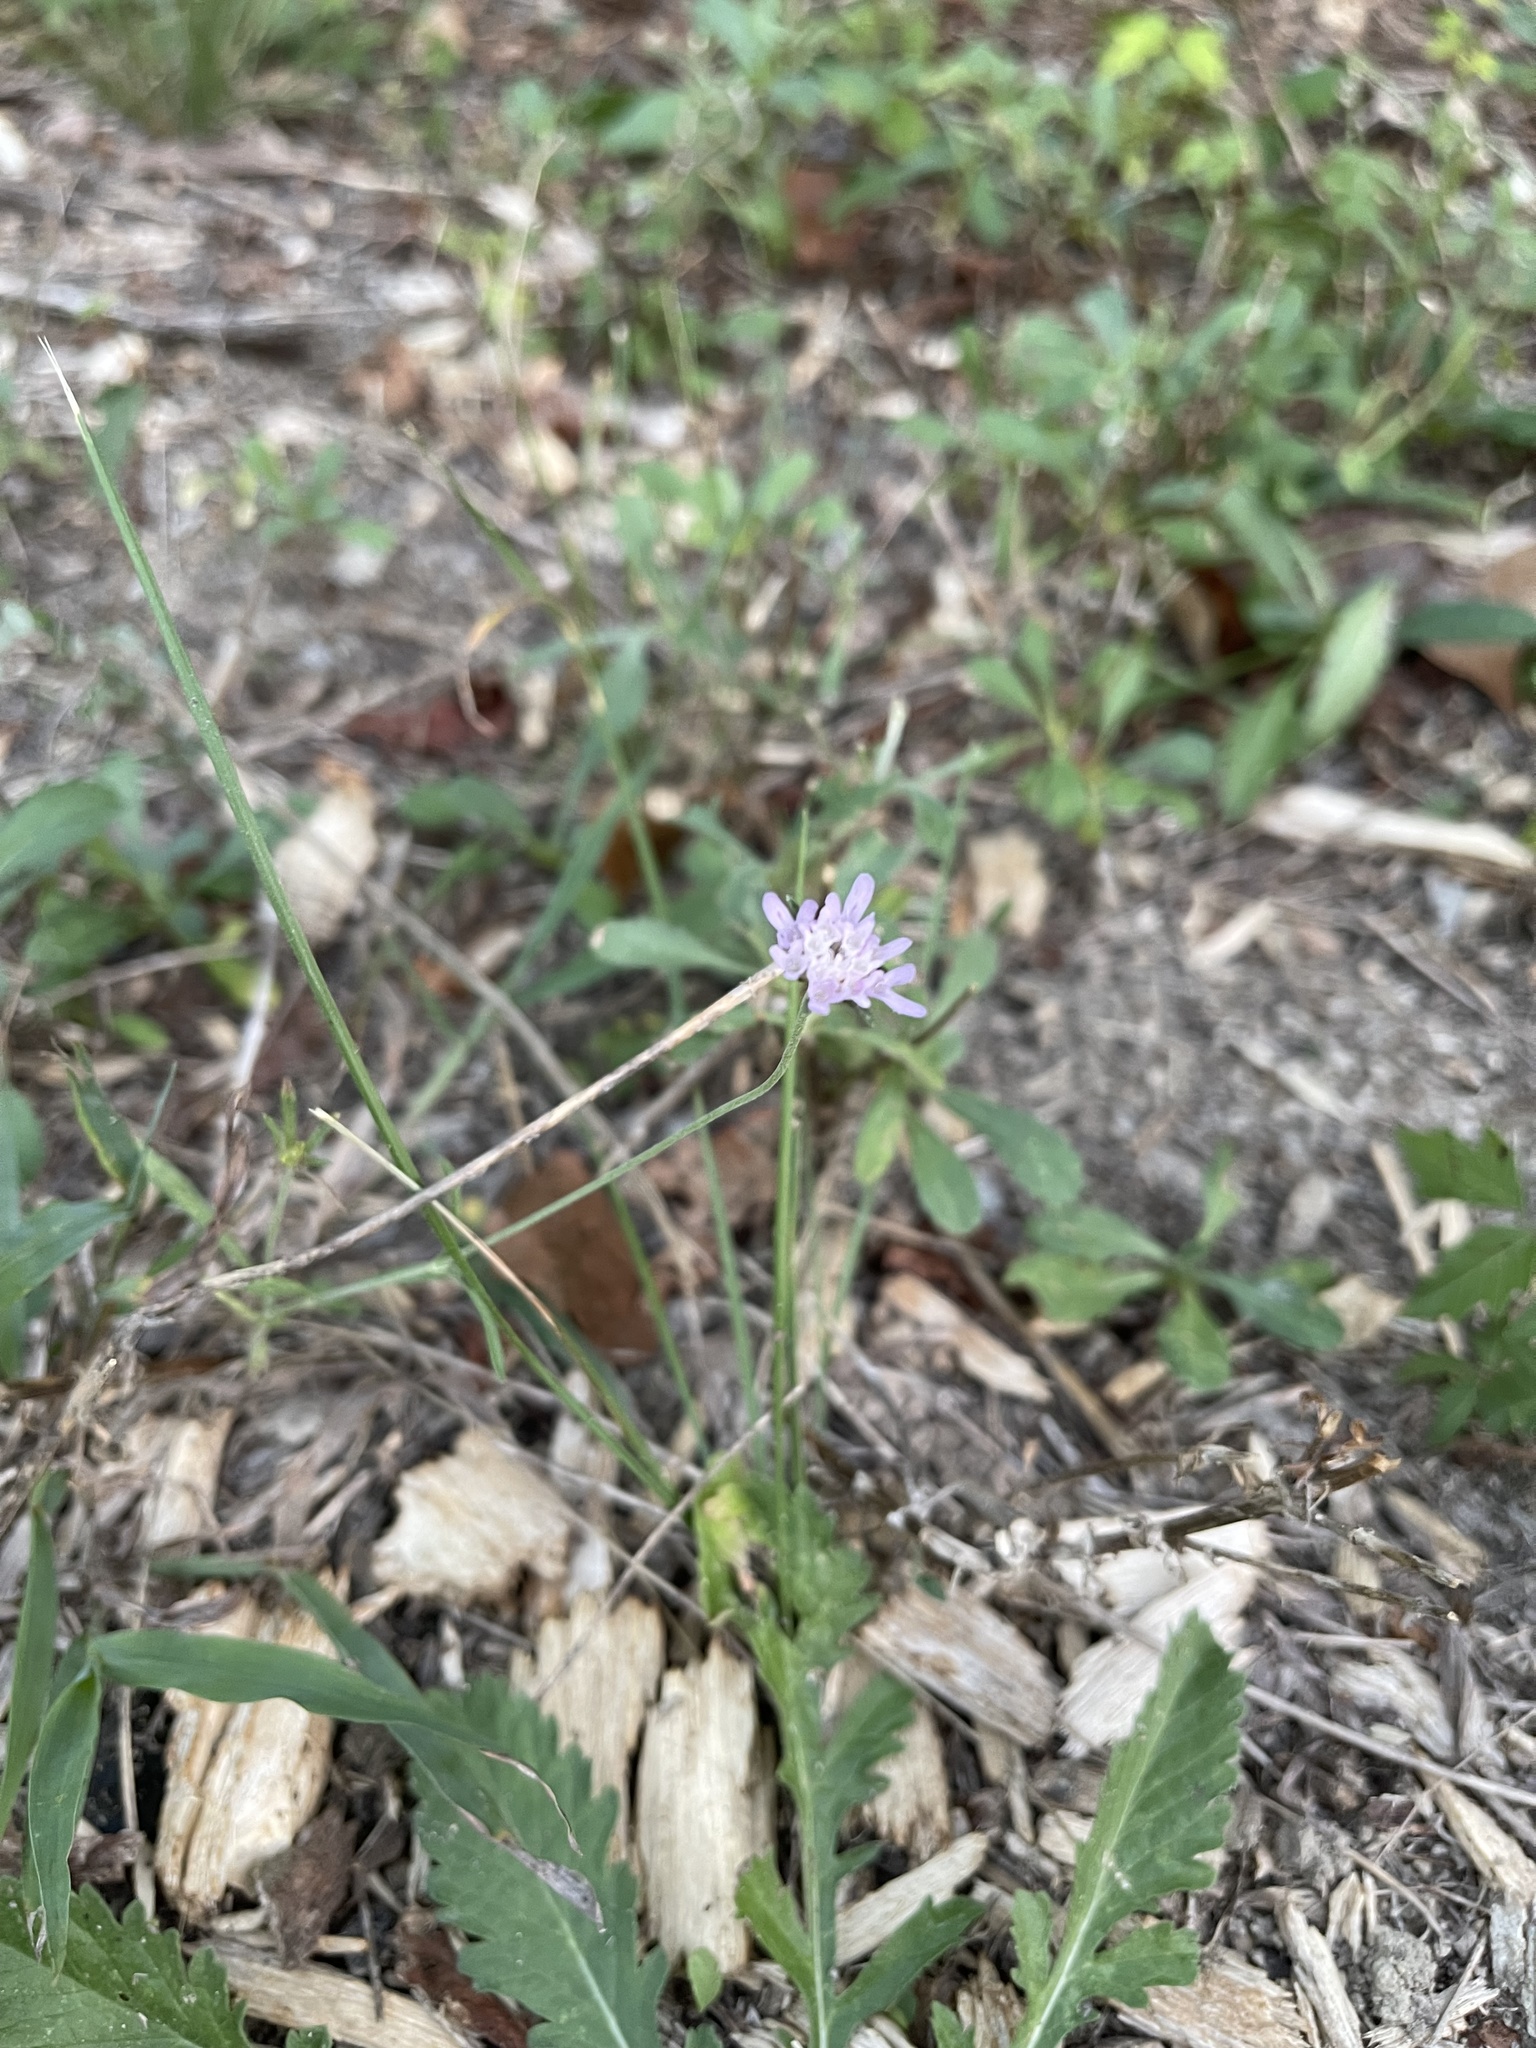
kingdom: Plantae
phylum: Tracheophyta
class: Magnoliopsida
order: Dipsacales
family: Caprifoliaceae
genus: Sixalix
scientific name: Sixalix atropurpurea
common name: Sweet scabious
